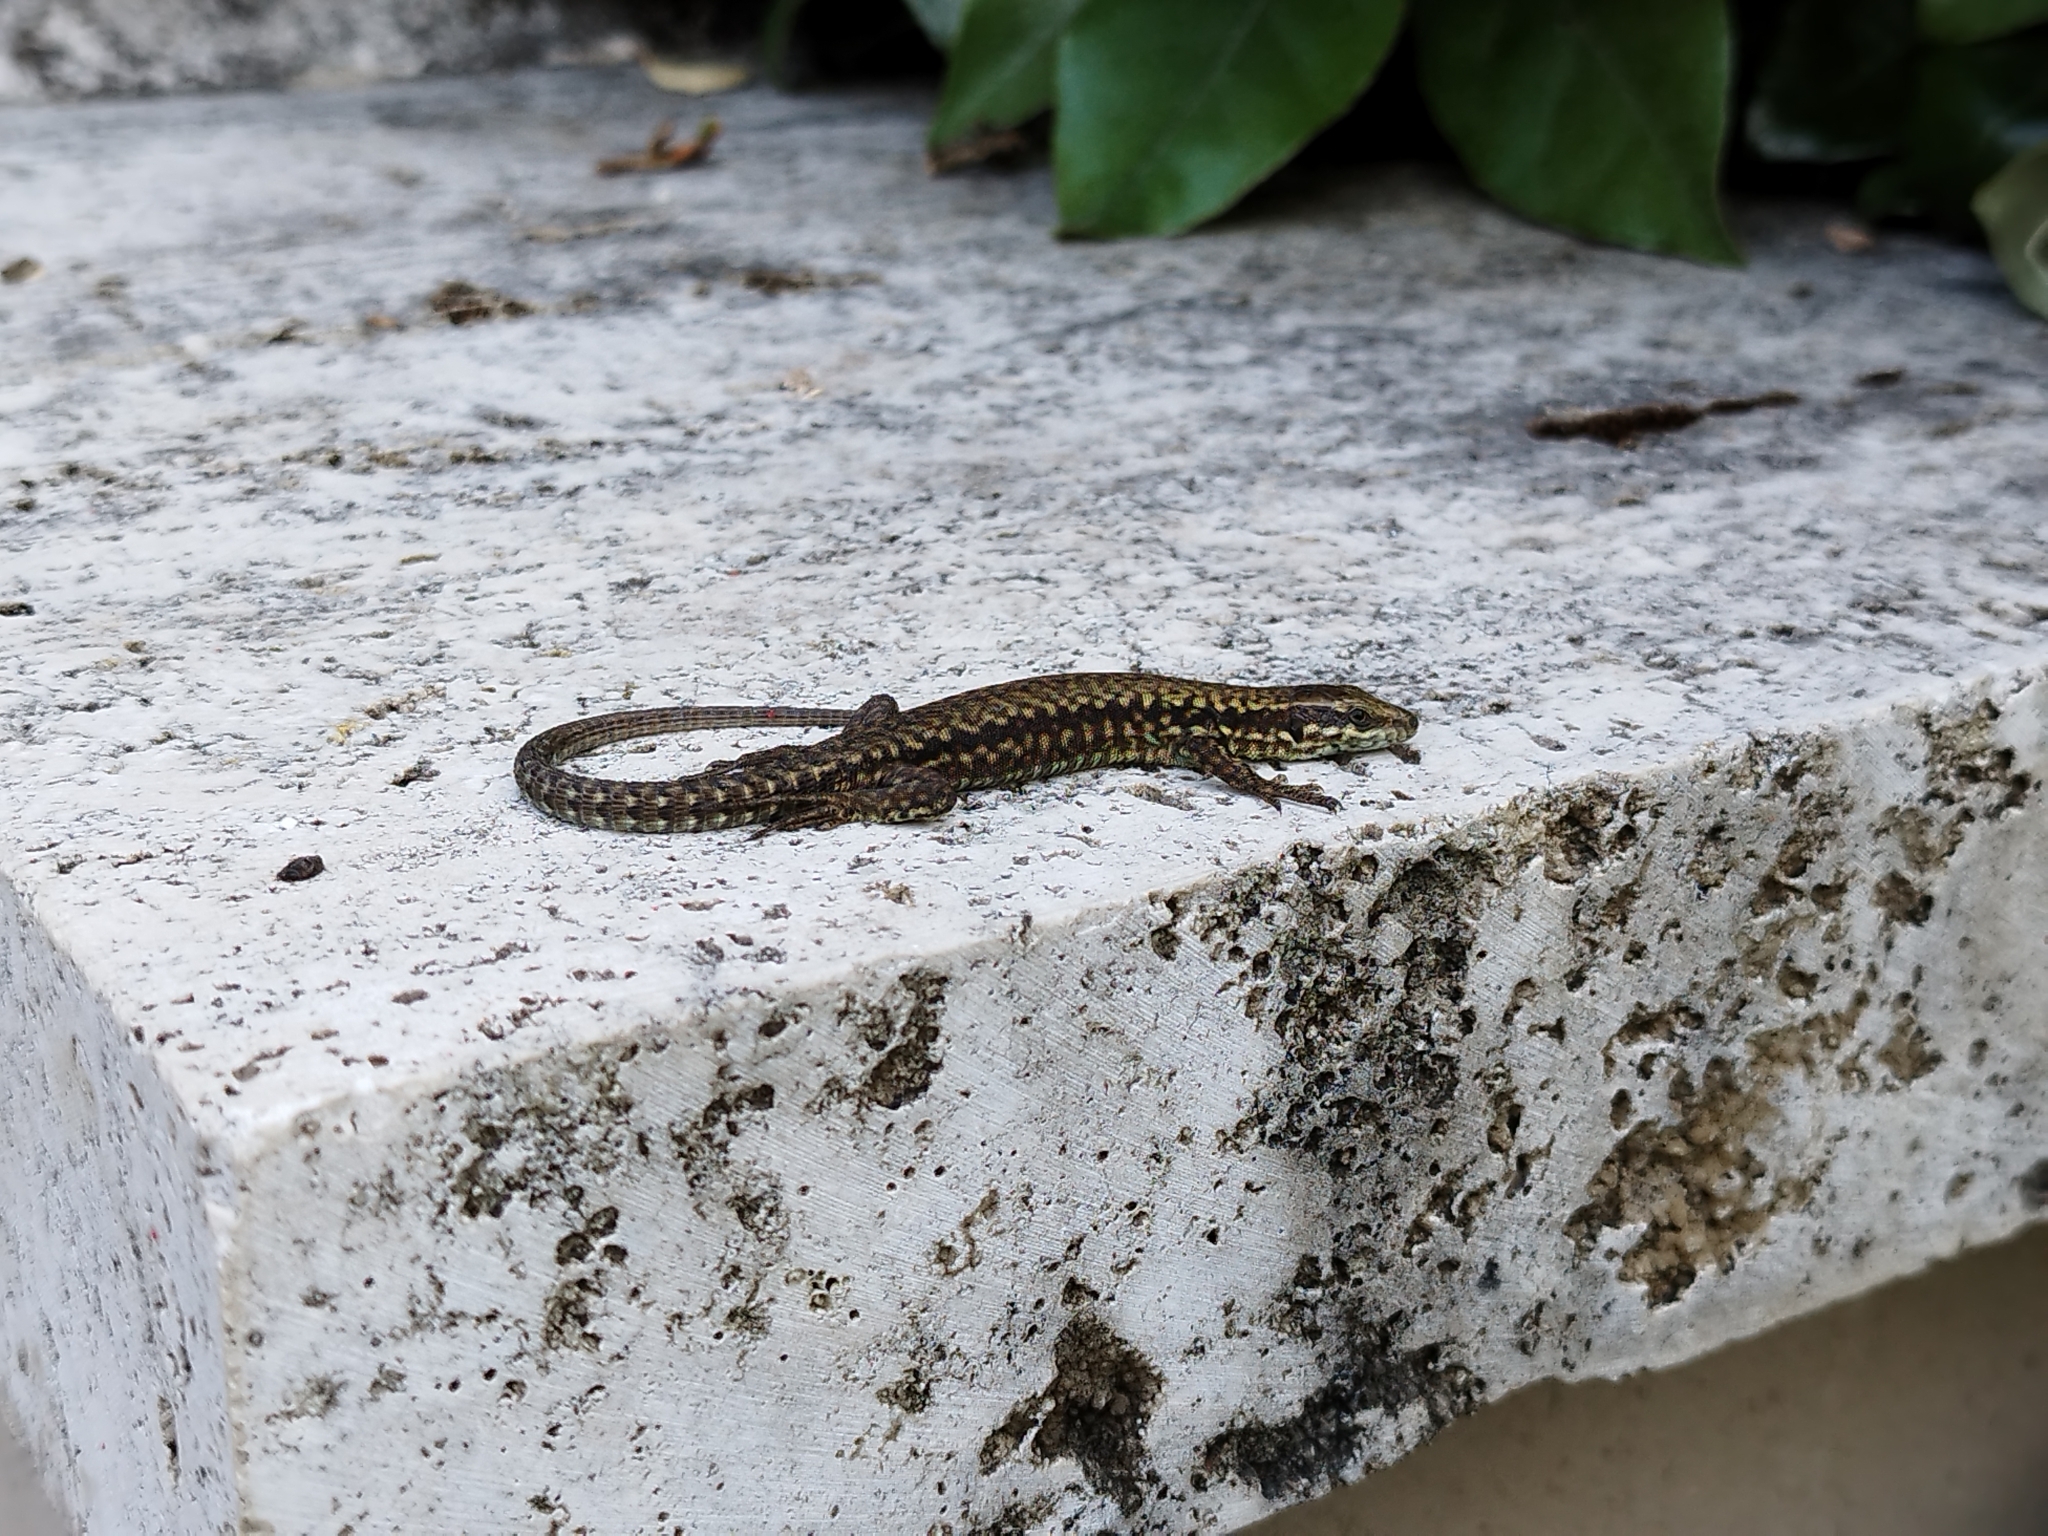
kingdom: Animalia
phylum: Chordata
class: Squamata
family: Lacertidae
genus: Podarcis
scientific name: Podarcis muralis
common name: Common wall lizard
